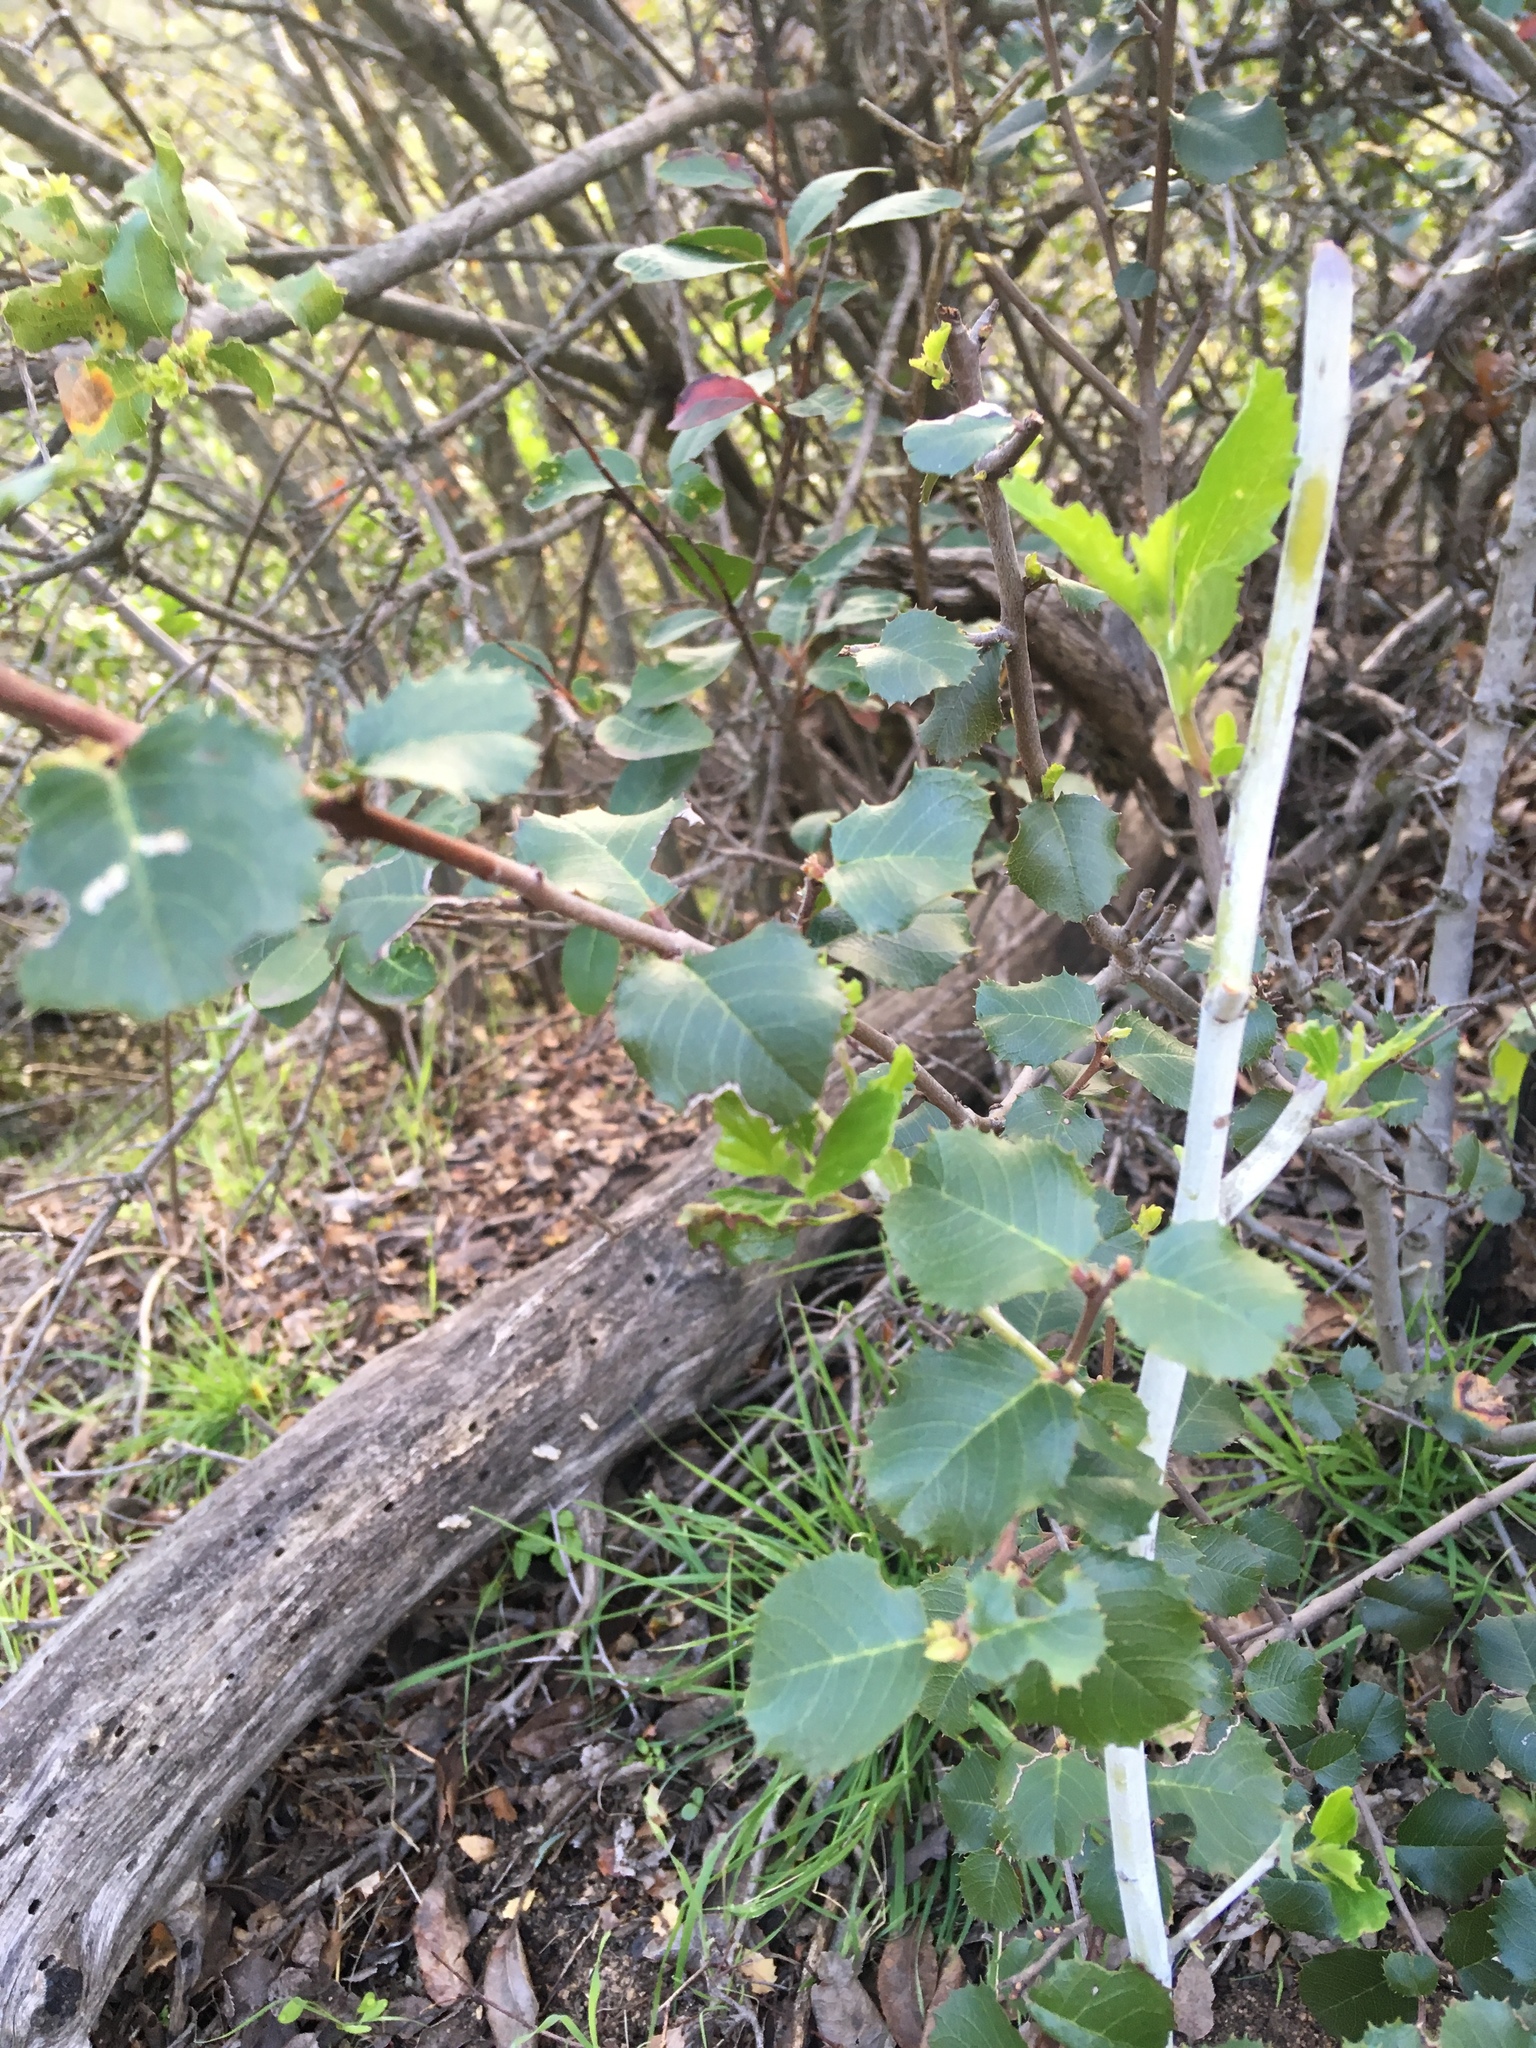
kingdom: Plantae
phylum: Tracheophyta
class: Magnoliopsida
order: Rosales
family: Rhamnaceae
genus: Endotropis
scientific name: Endotropis crocea
